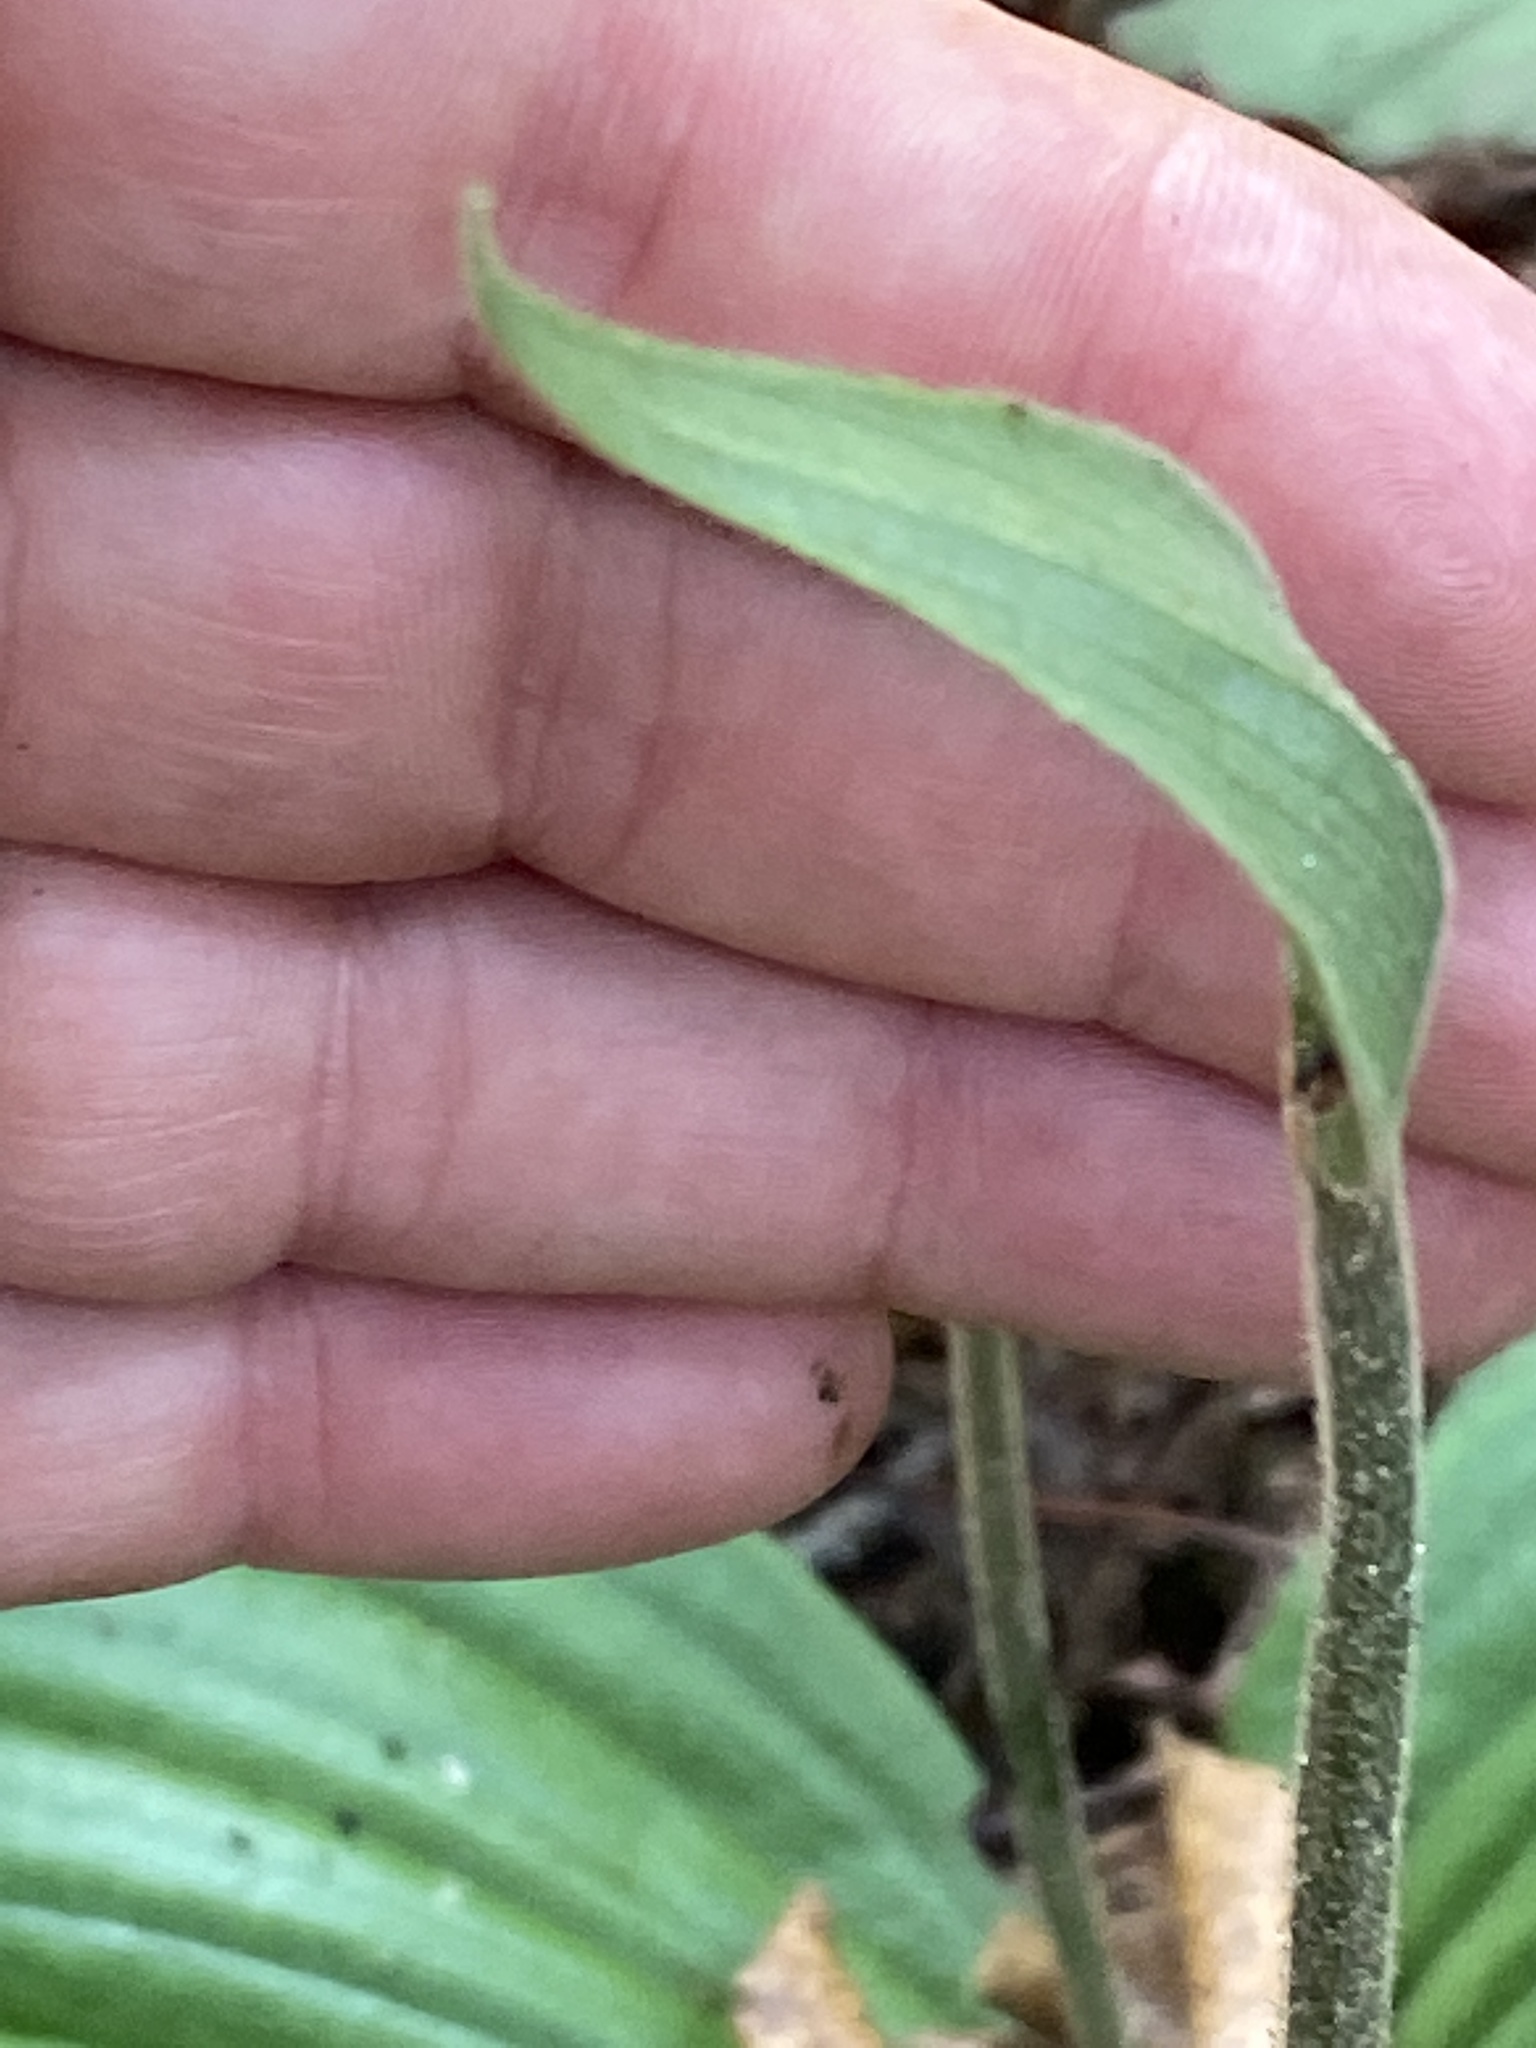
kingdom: Plantae
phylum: Tracheophyta
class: Liliopsida
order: Asparagales
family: Orchidaceae
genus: Cypripedium
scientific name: Cypripedium acaule
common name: Pink lady's-slipper
